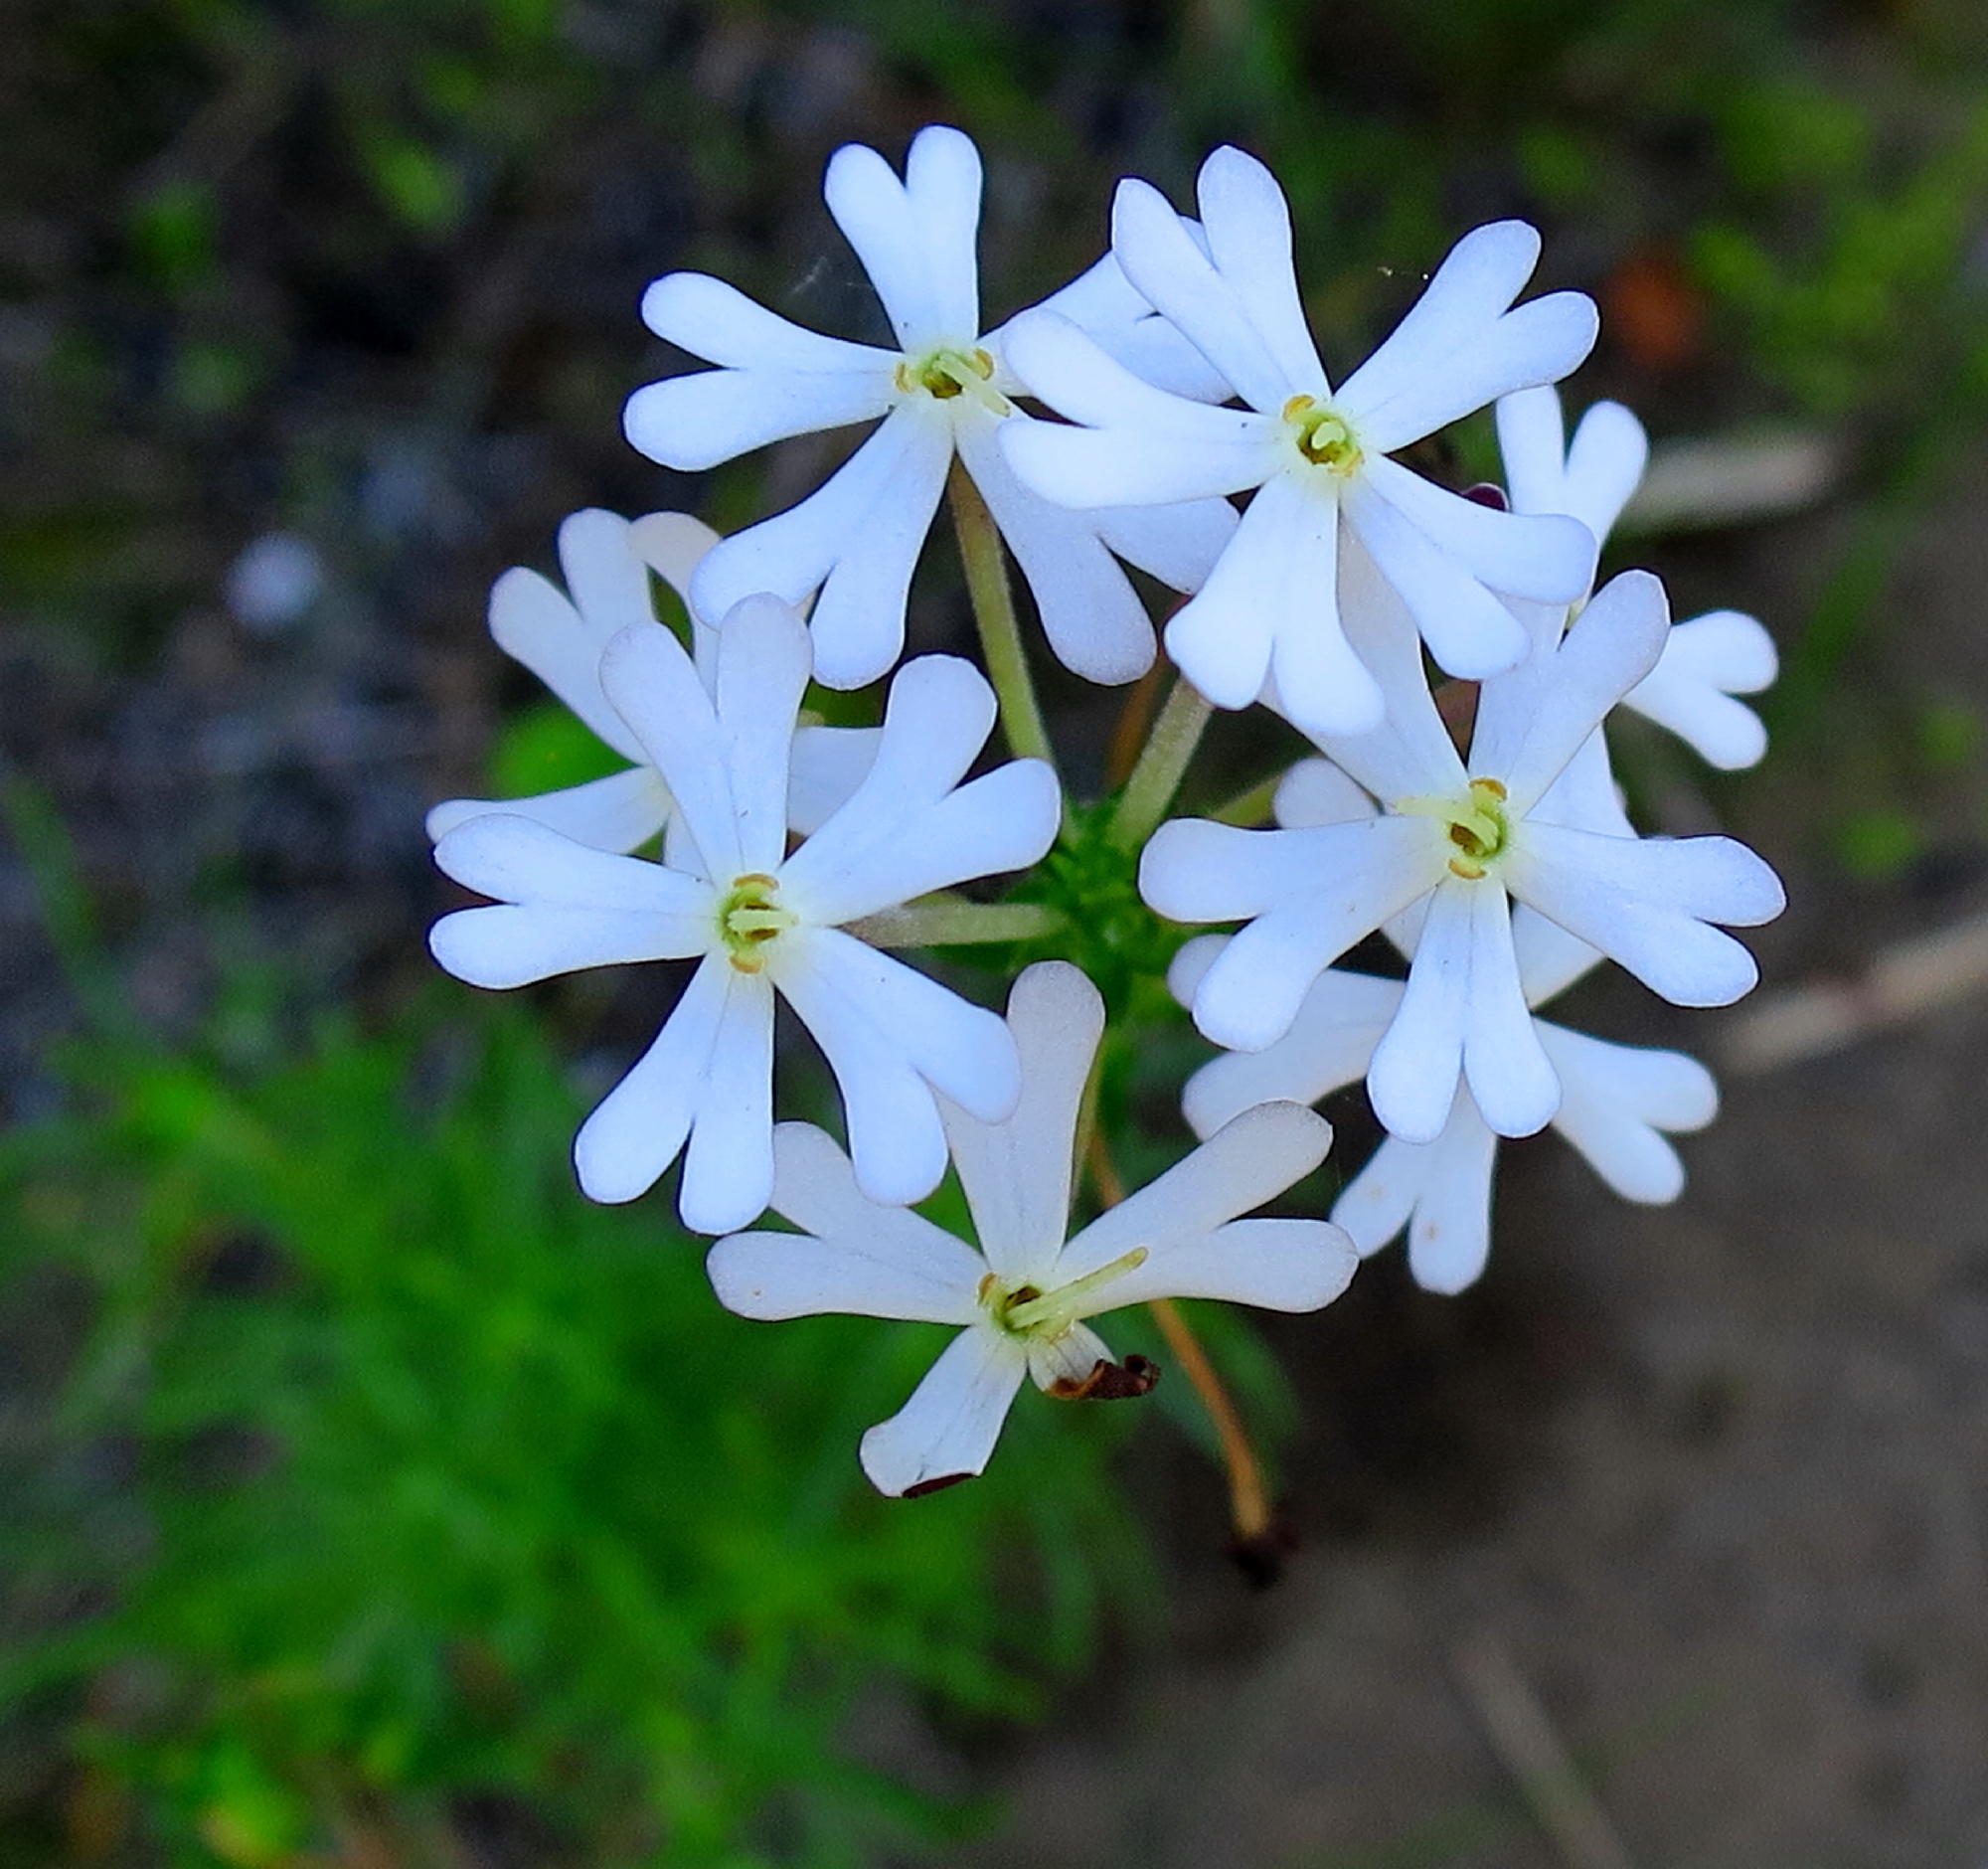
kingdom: Plantae
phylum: Tracheophyta
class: Magnoliopsida
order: Lamiales
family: Scrophulariaceae
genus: Zaluzianskya
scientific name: Zaluzianskya capensis
